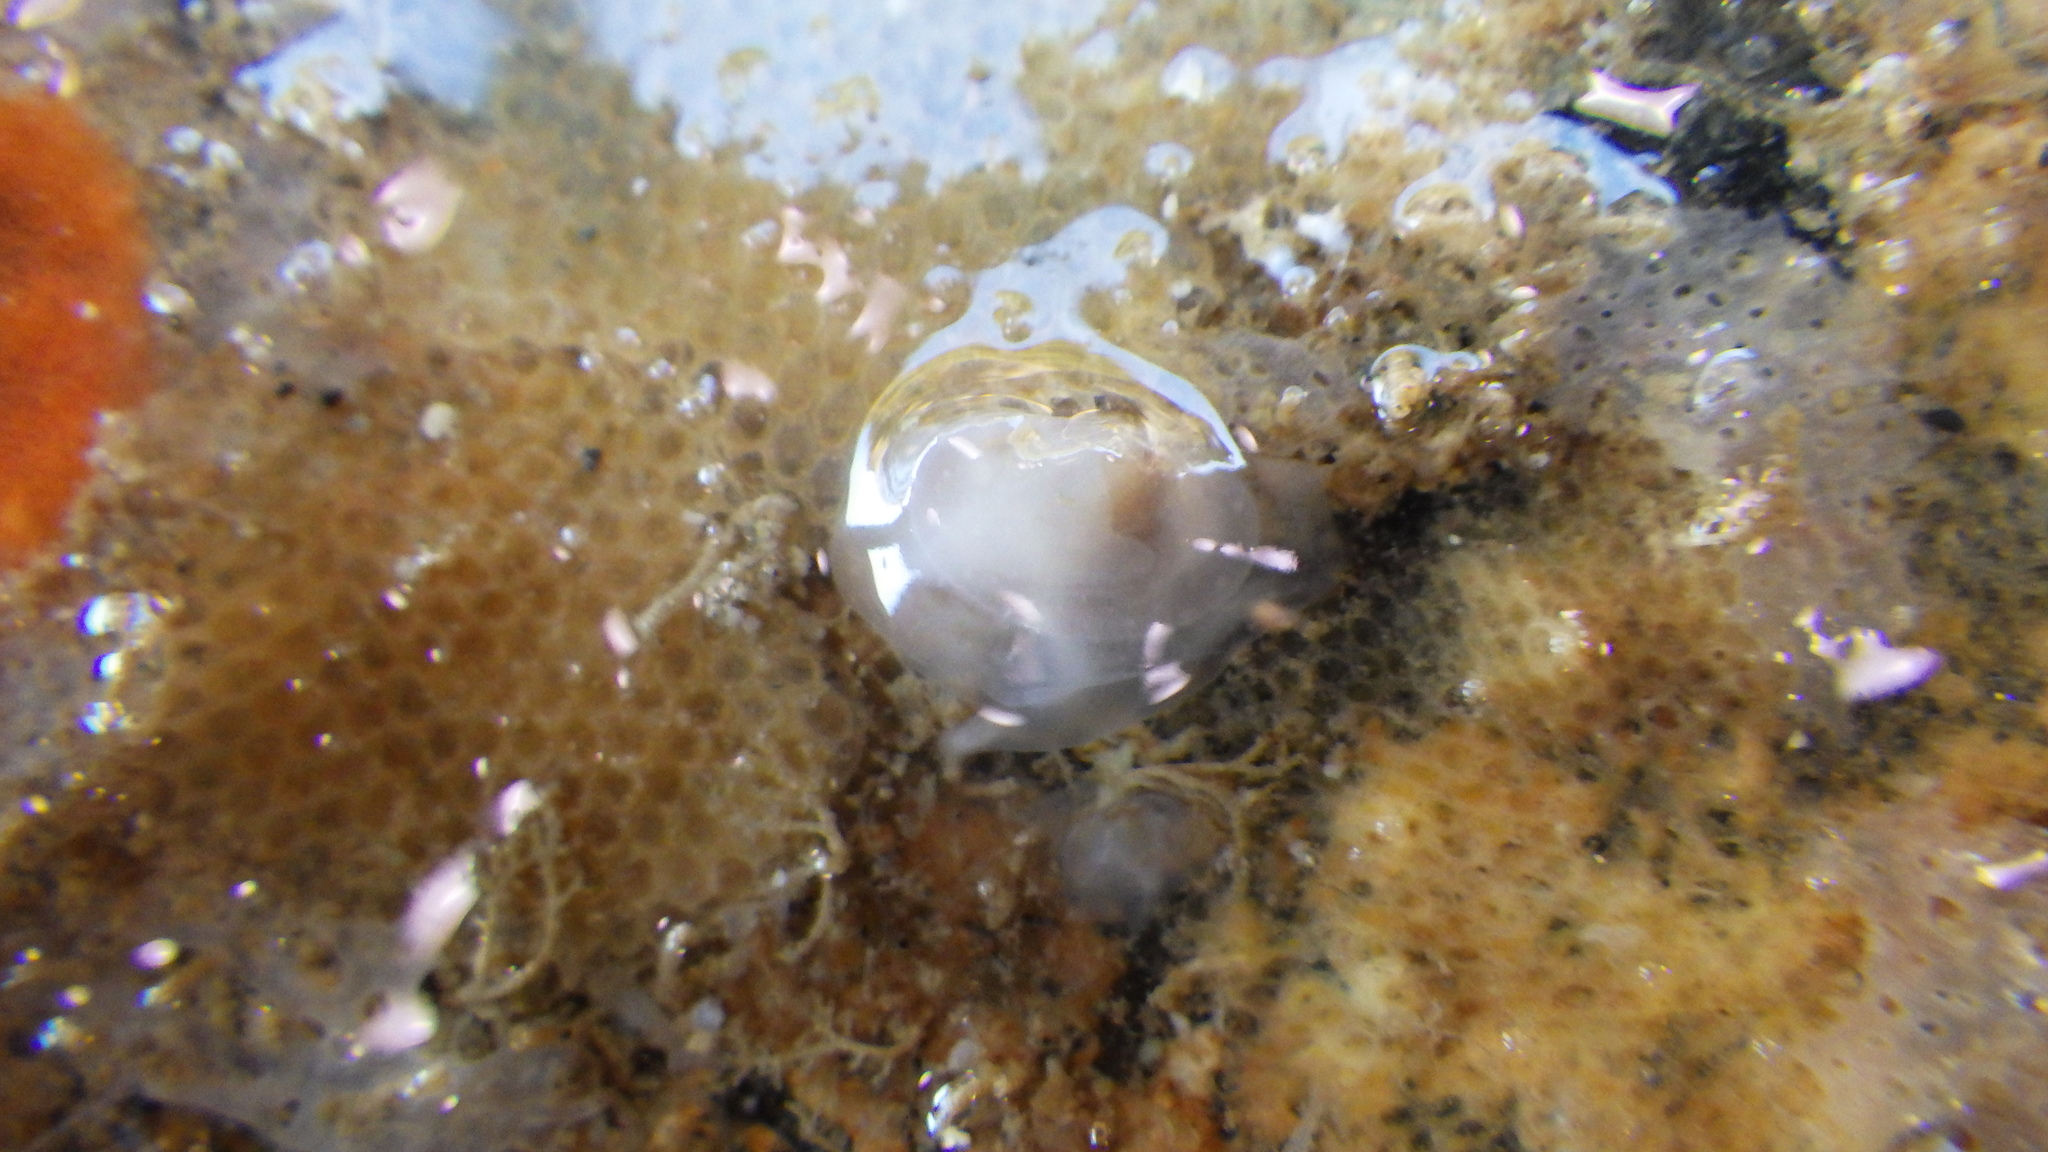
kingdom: Animalia
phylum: Mollusca
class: Bivalvia
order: Galeommatida
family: Galeommatidae
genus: Scintilla
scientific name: Scintilla stevensoni
